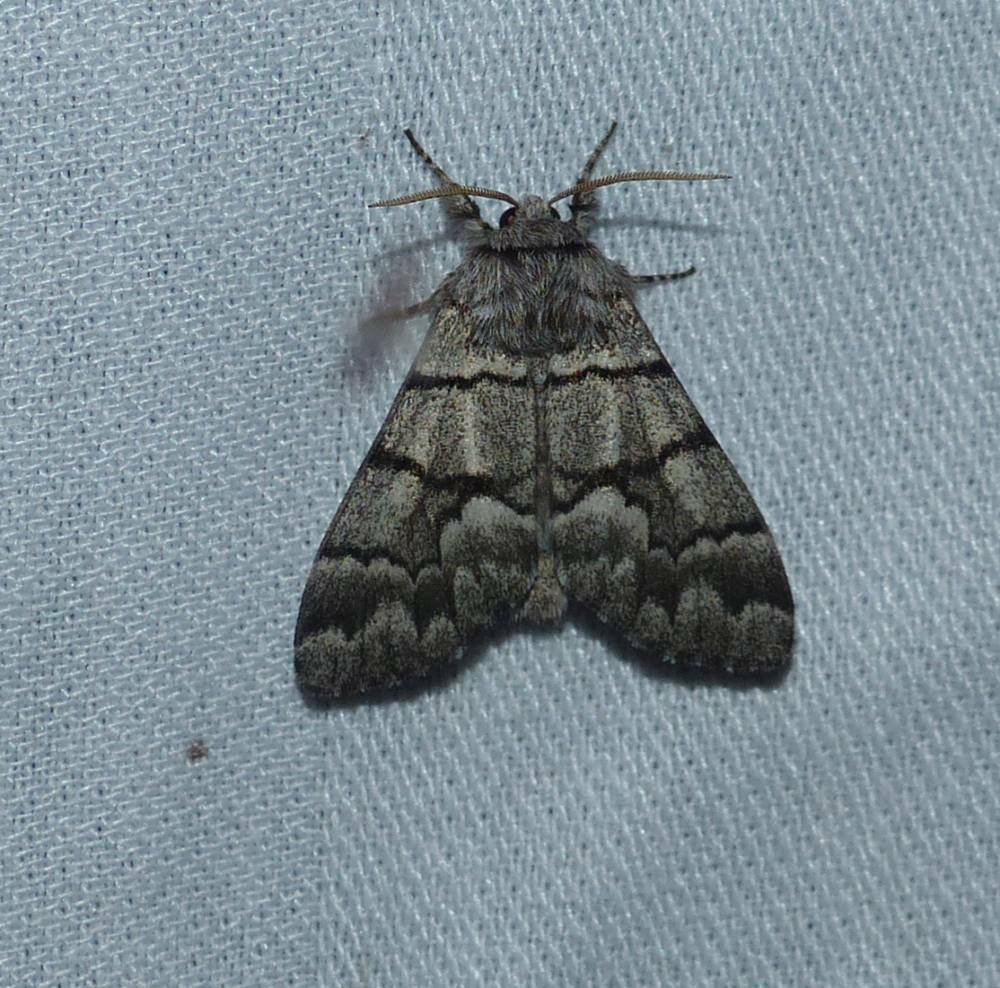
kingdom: Animalia
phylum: Arthropoda
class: Insecta
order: Lepidoptera
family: Noctuidae
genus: Panthea
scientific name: Panthea furcilla
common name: Eastern panthea moth
